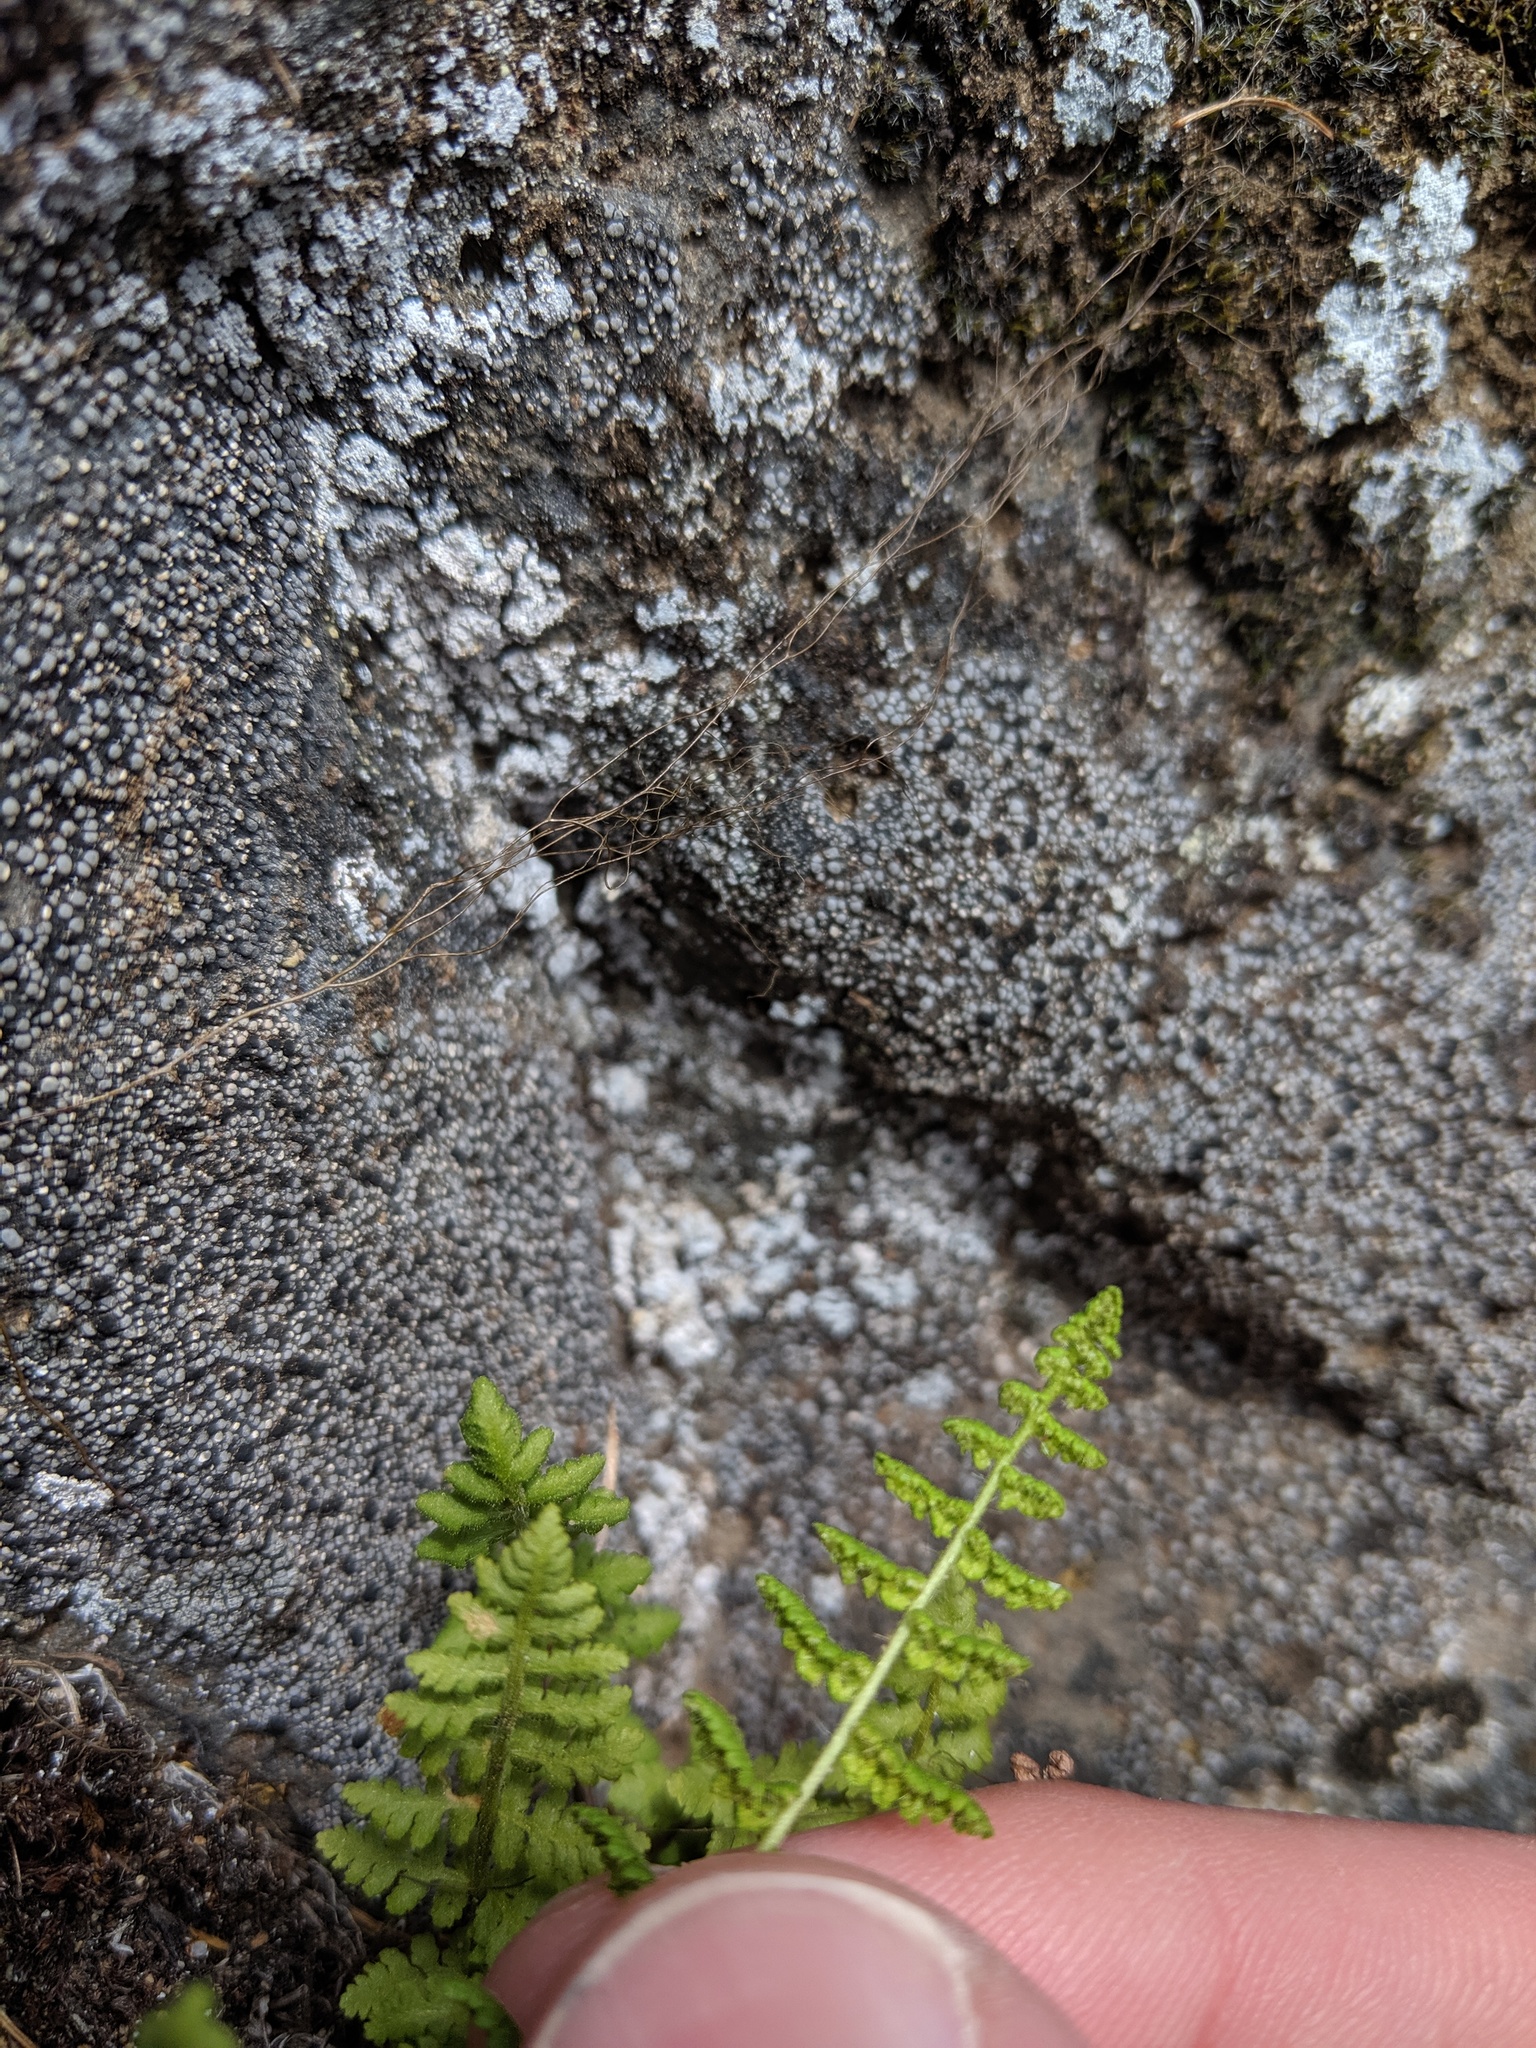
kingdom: Plantae
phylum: Tracheophyta
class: Polypodiopsida
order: Polypodiales
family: Woodsiaceae
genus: Physematium
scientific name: Physematium scopulinum
